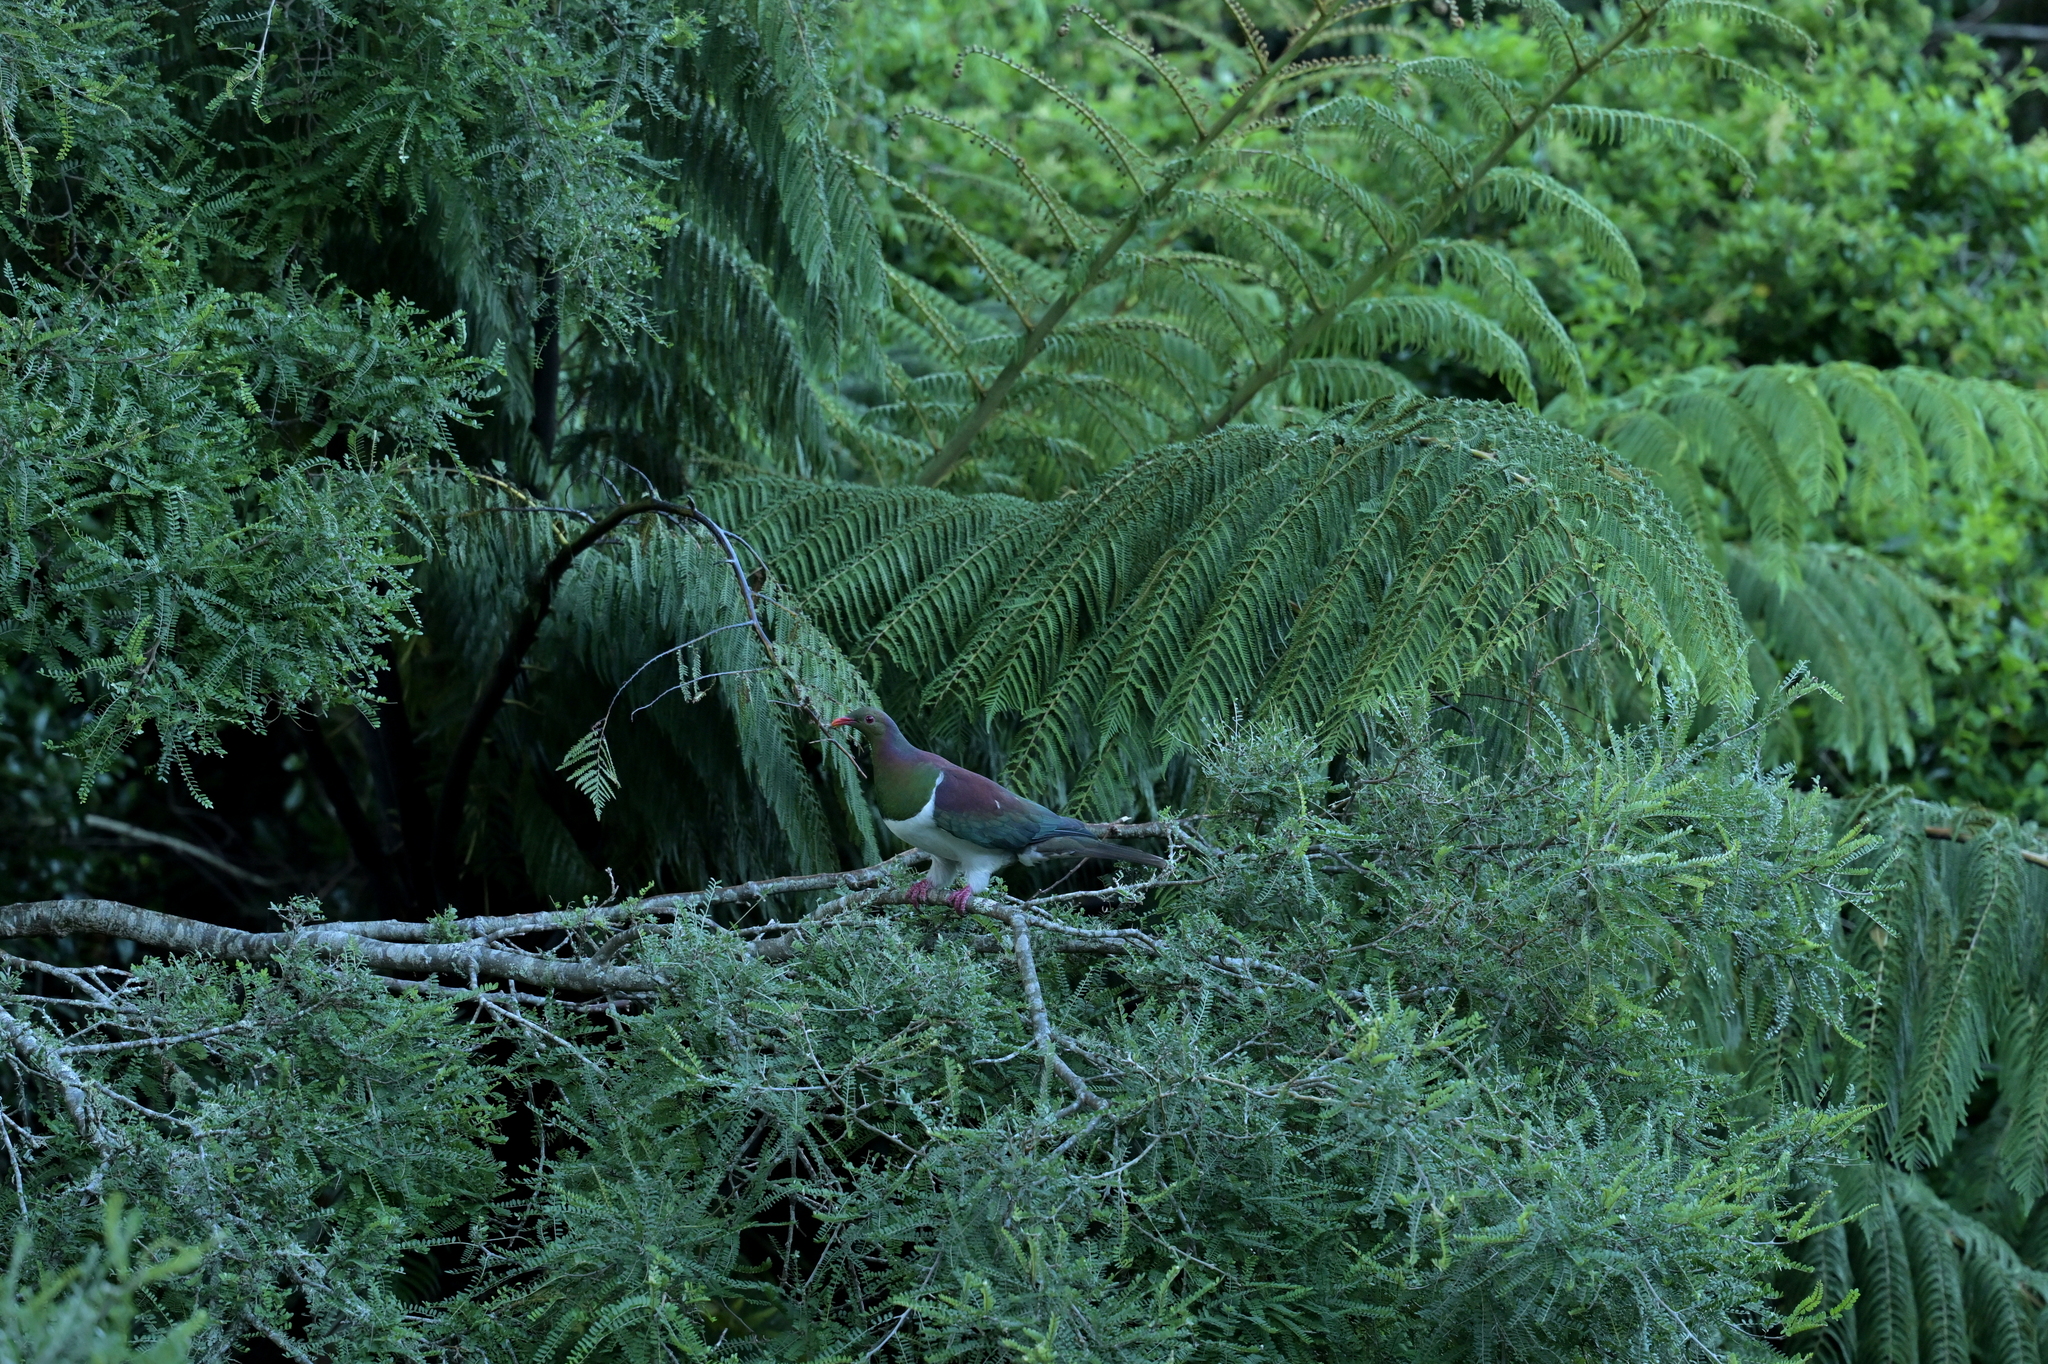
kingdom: Animalia
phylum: Chordata
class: Aves
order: Columbiformes
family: Columbidae
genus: Hemiphaga
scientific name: Hemiphaga novaeseelandiae
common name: New zealand pigeon
